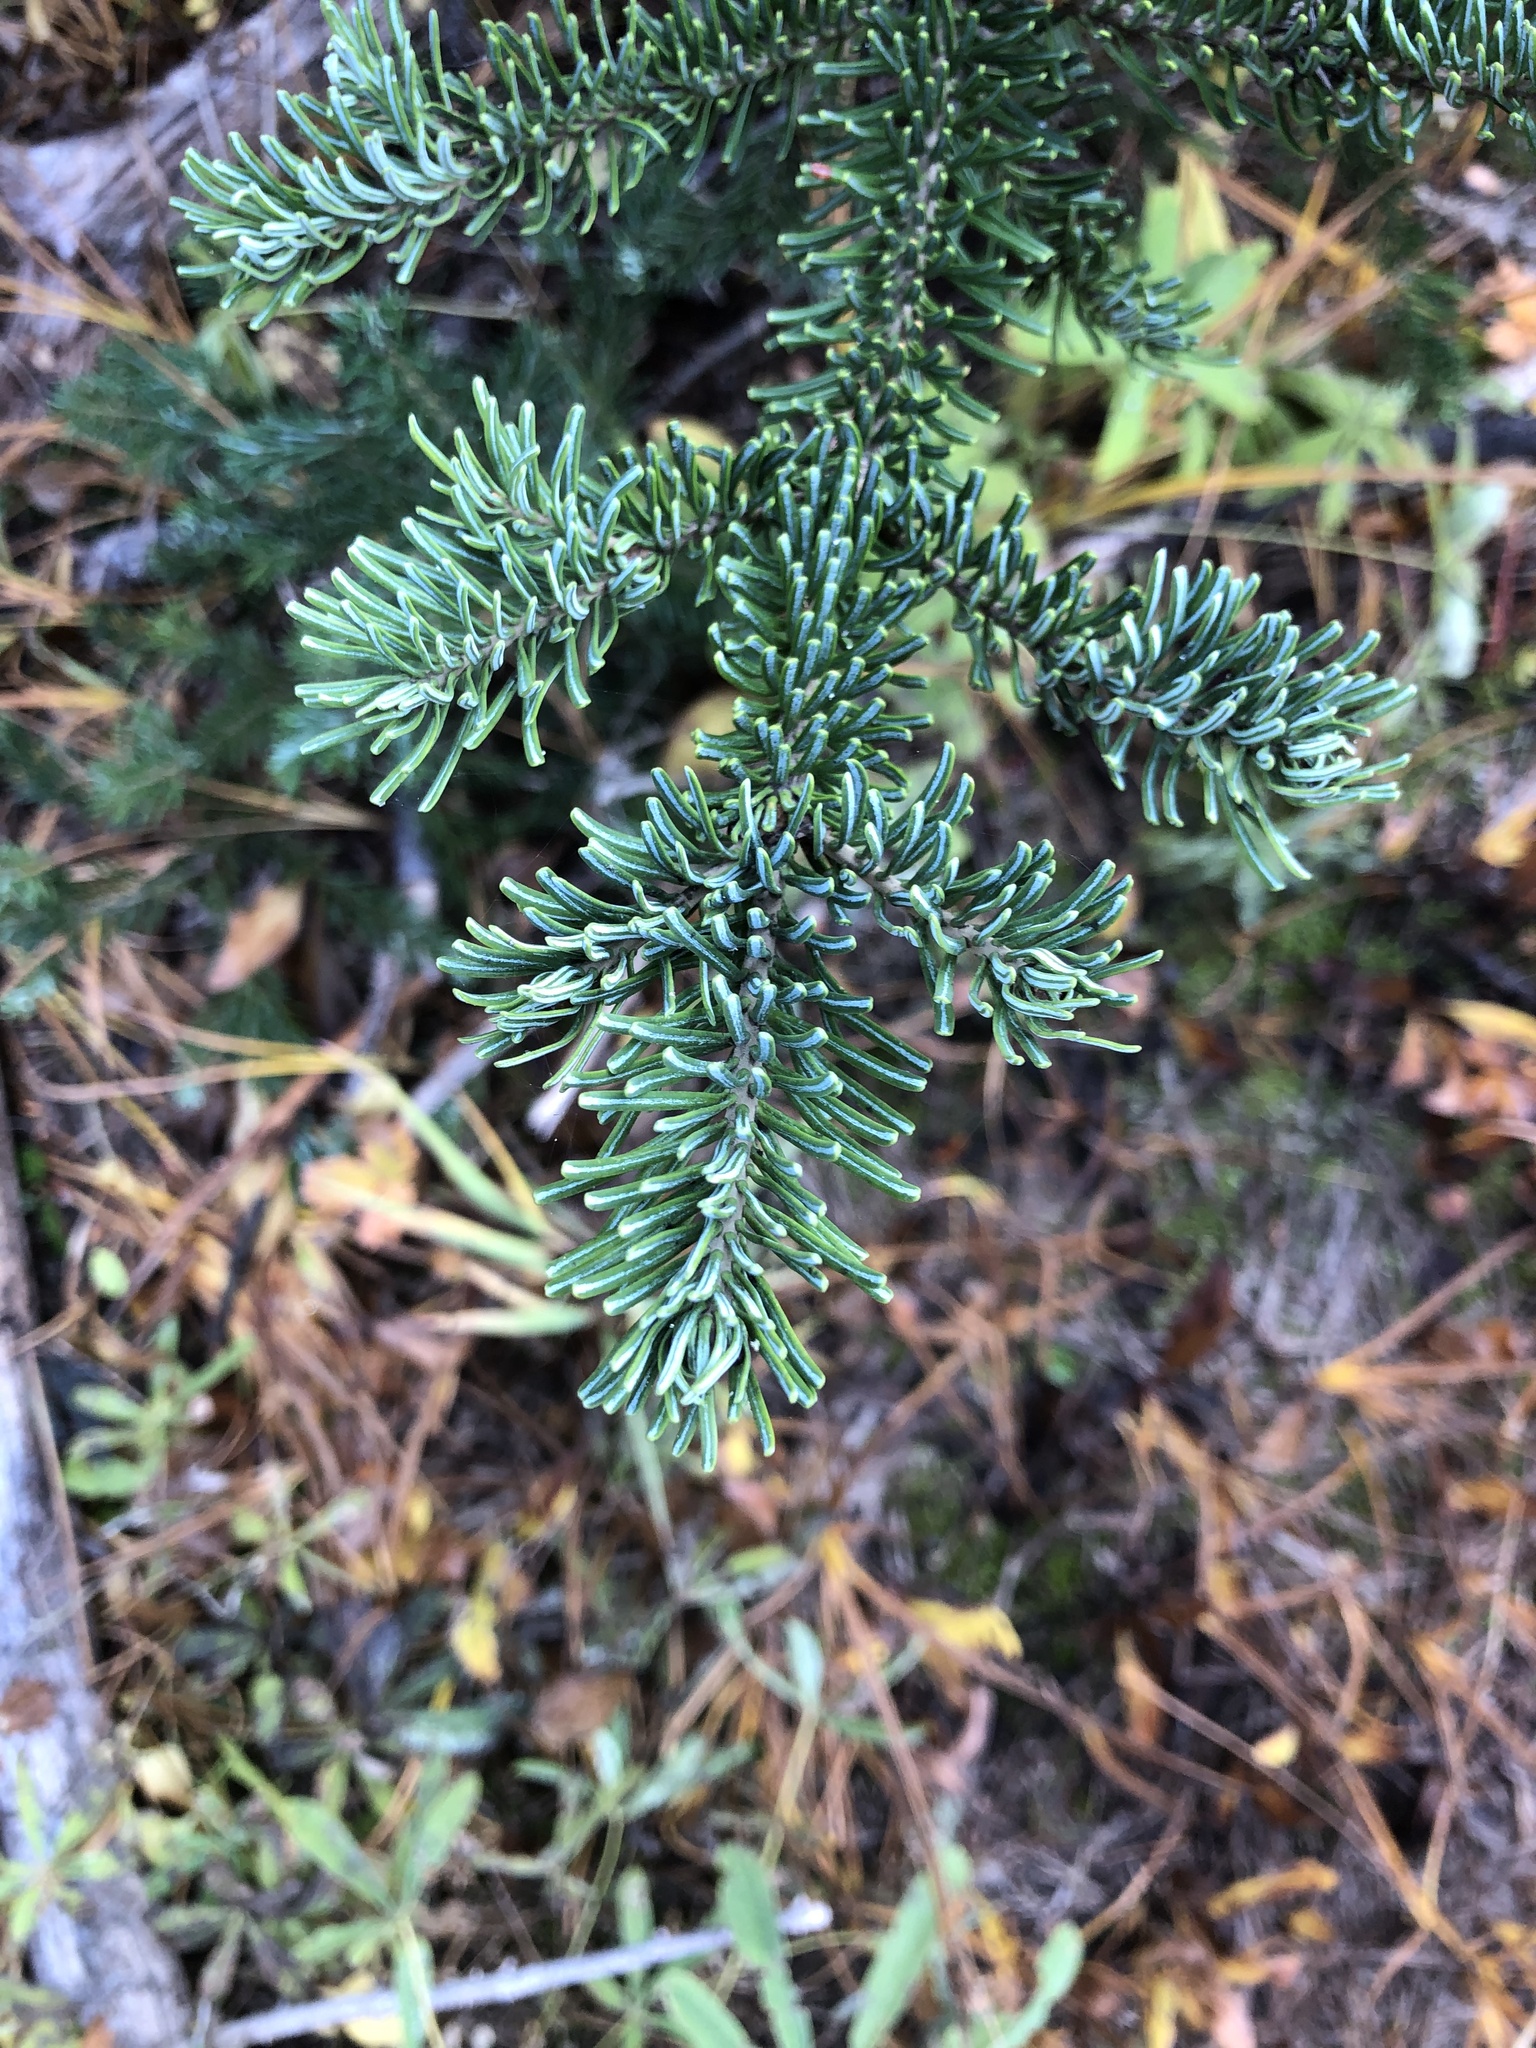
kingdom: Plantae
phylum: Tracheophyta
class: Pinopsida
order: Pinales
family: Pinaceae
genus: Abies
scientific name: Abies lasiocarpa
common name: Subalpine fir
